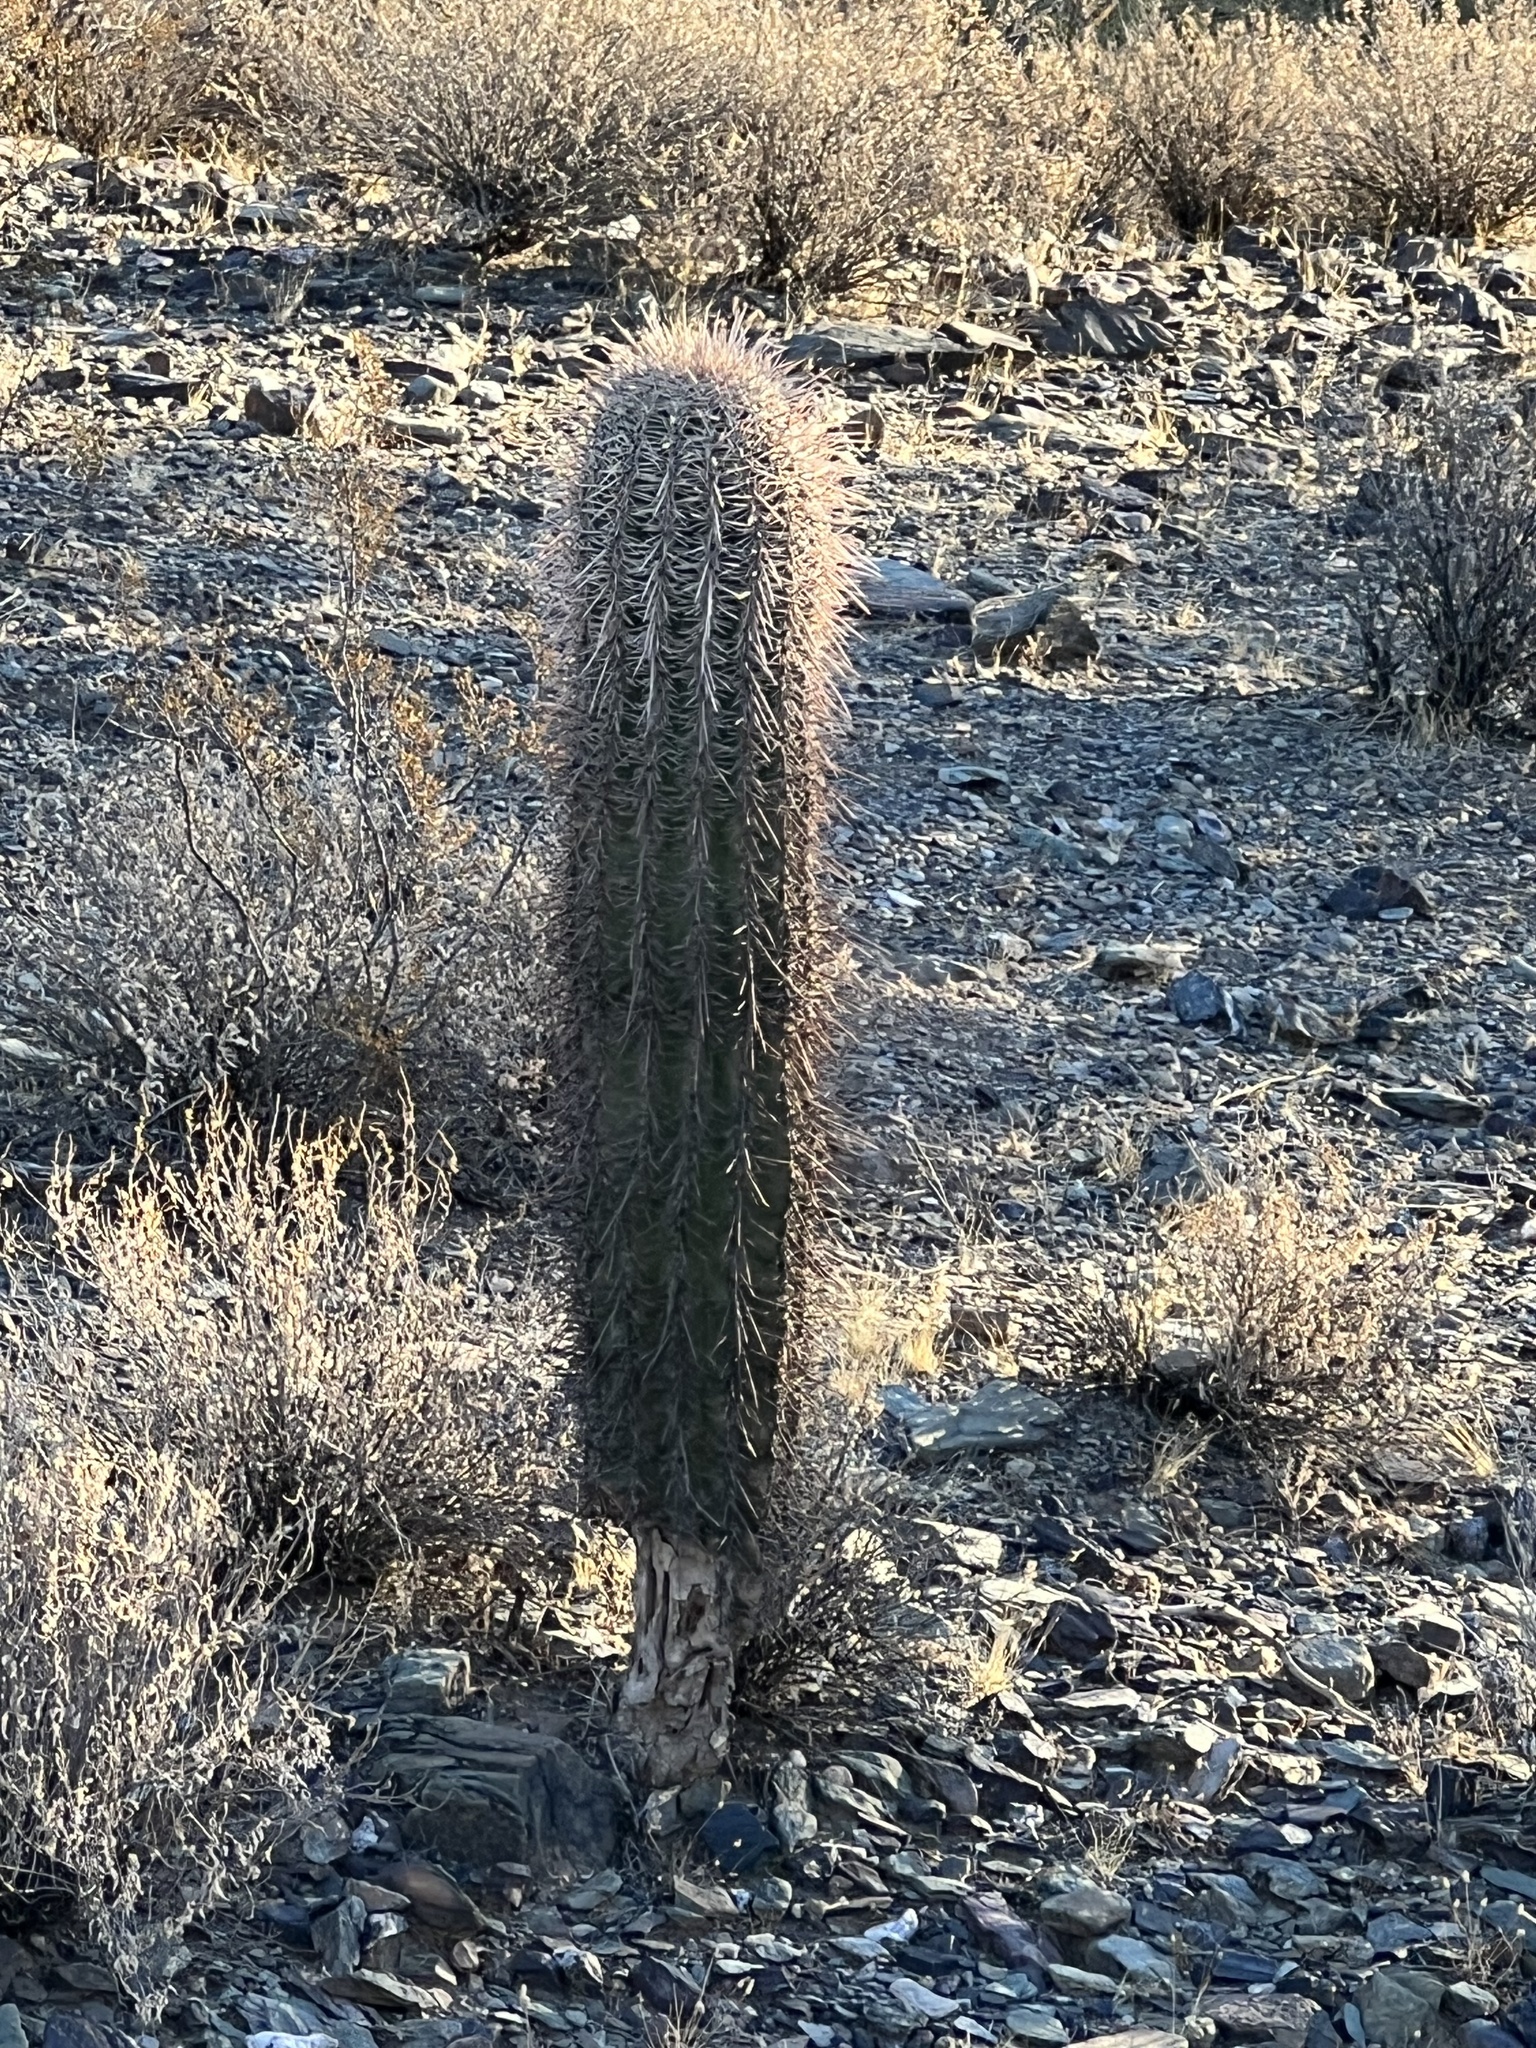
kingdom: Plantae
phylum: Tracheophyta
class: Magnoliopsida
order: Caryophyllales
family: Cactaceae
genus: Carnegiea
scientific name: Carnegiea gigantea
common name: Saguaro
